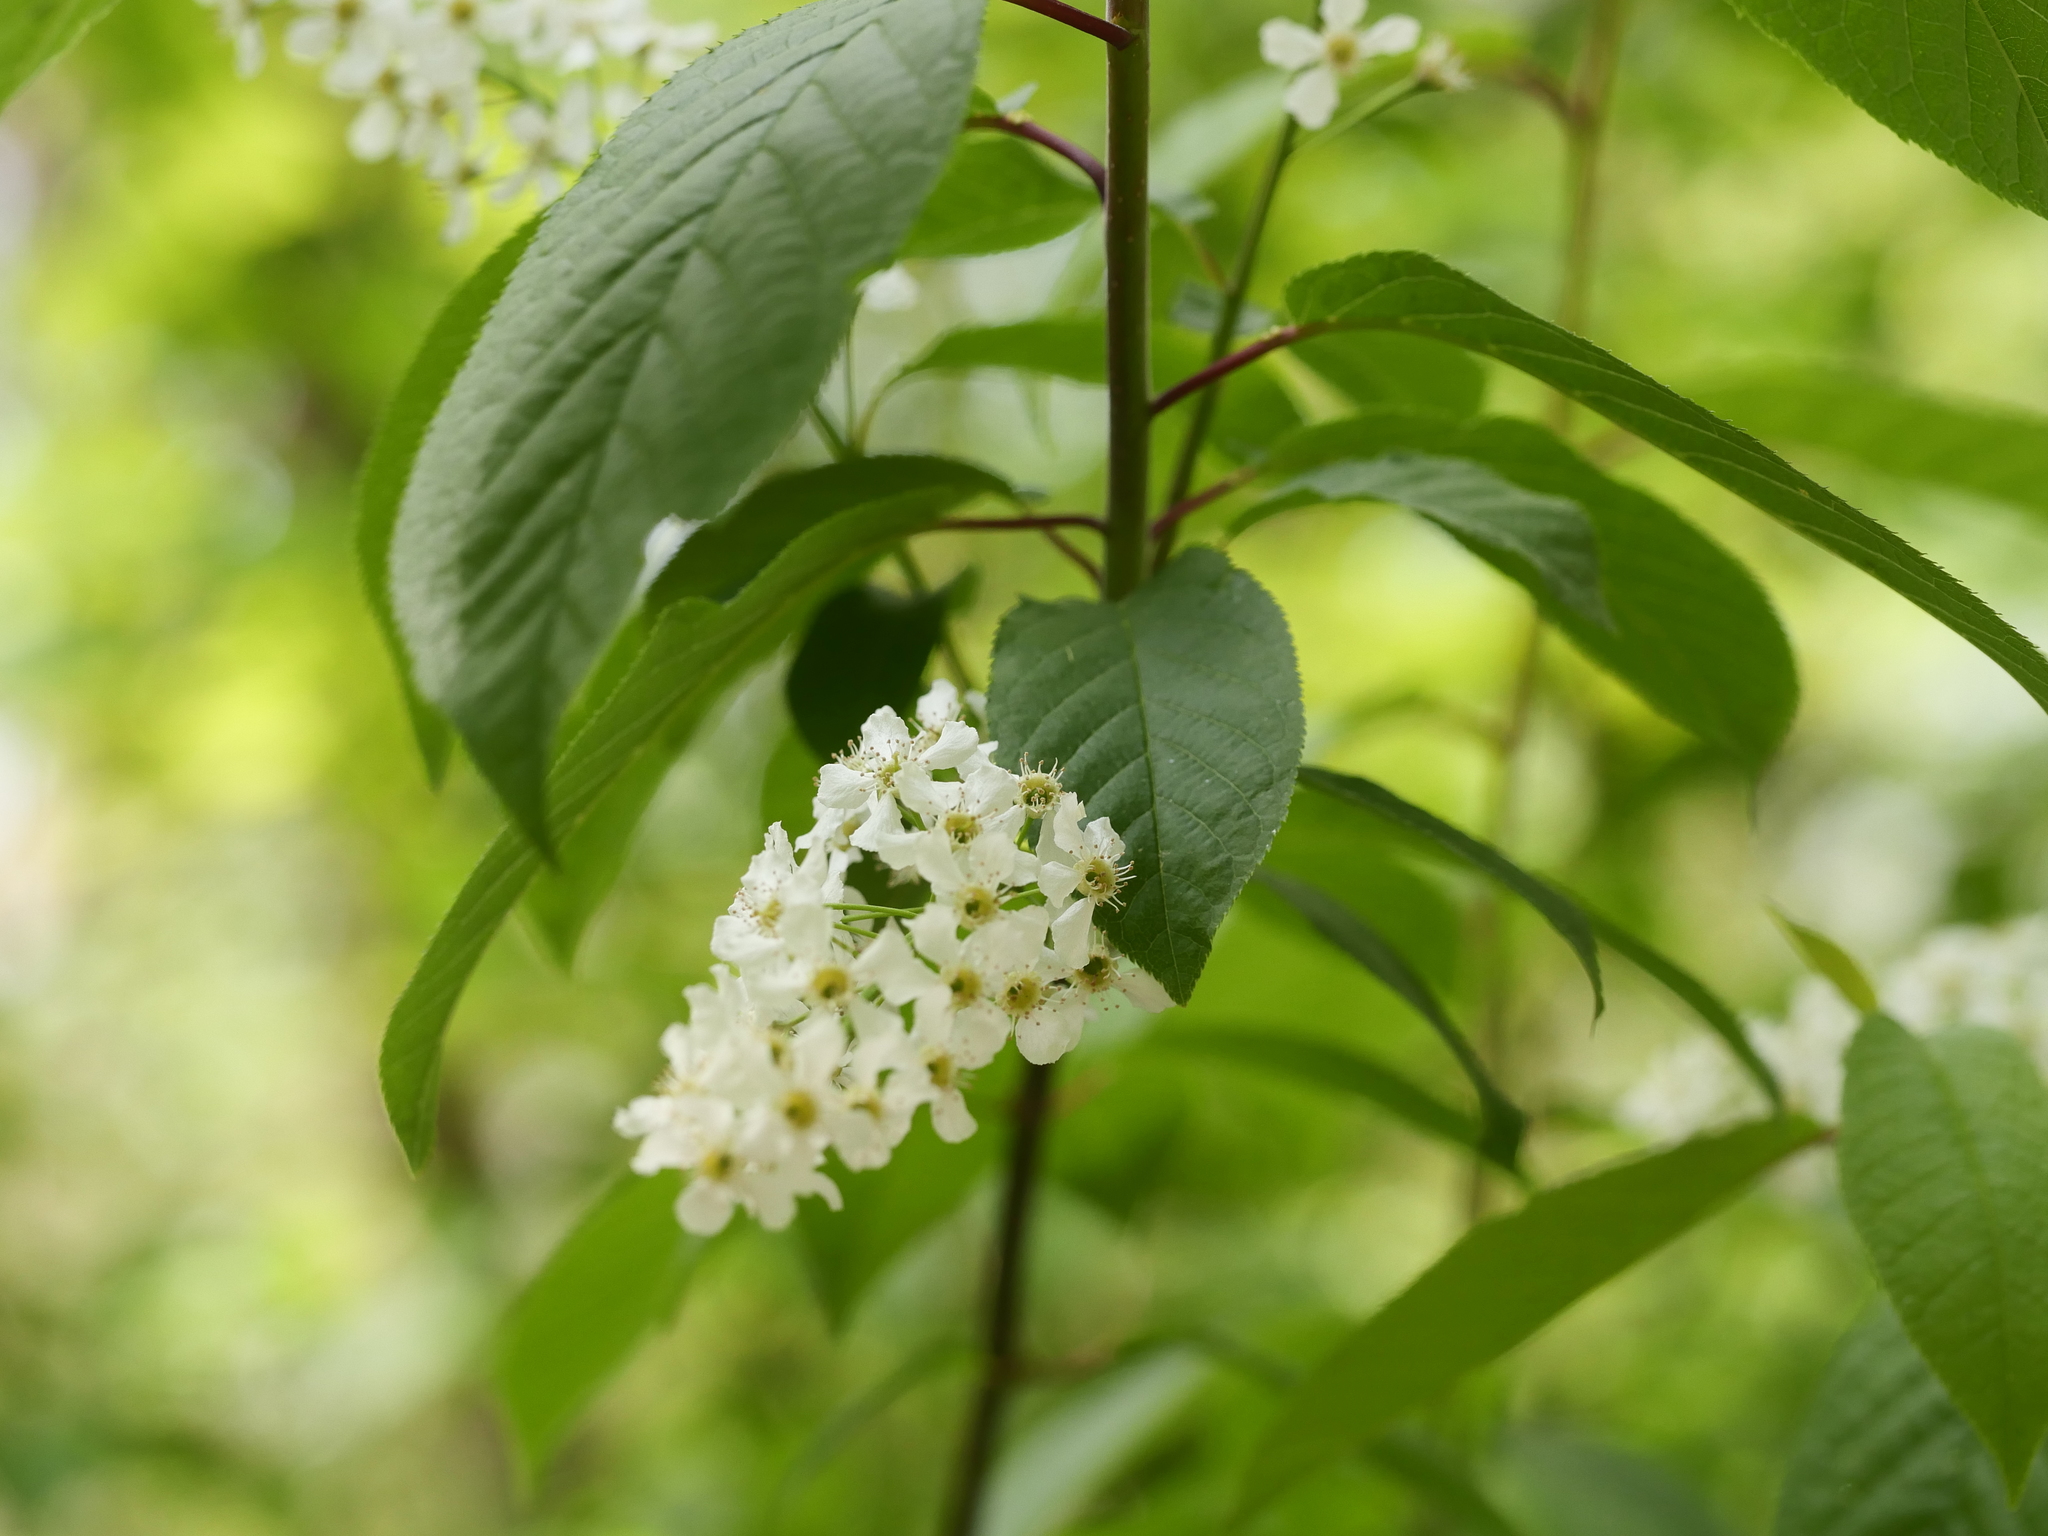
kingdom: Plantae
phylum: Tracheophyta
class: Magnoliopsida
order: Rosales
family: Rosaceae
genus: Prunus
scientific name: Prunus padus
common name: Bird cherry
